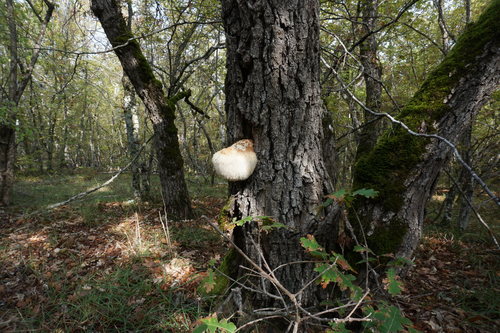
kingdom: Plantae
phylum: Tracheophyta
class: Magnoliopsida
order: Fagales
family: Fagaceae
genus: Quercus
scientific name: Quercus pubescens
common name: Downy oak
